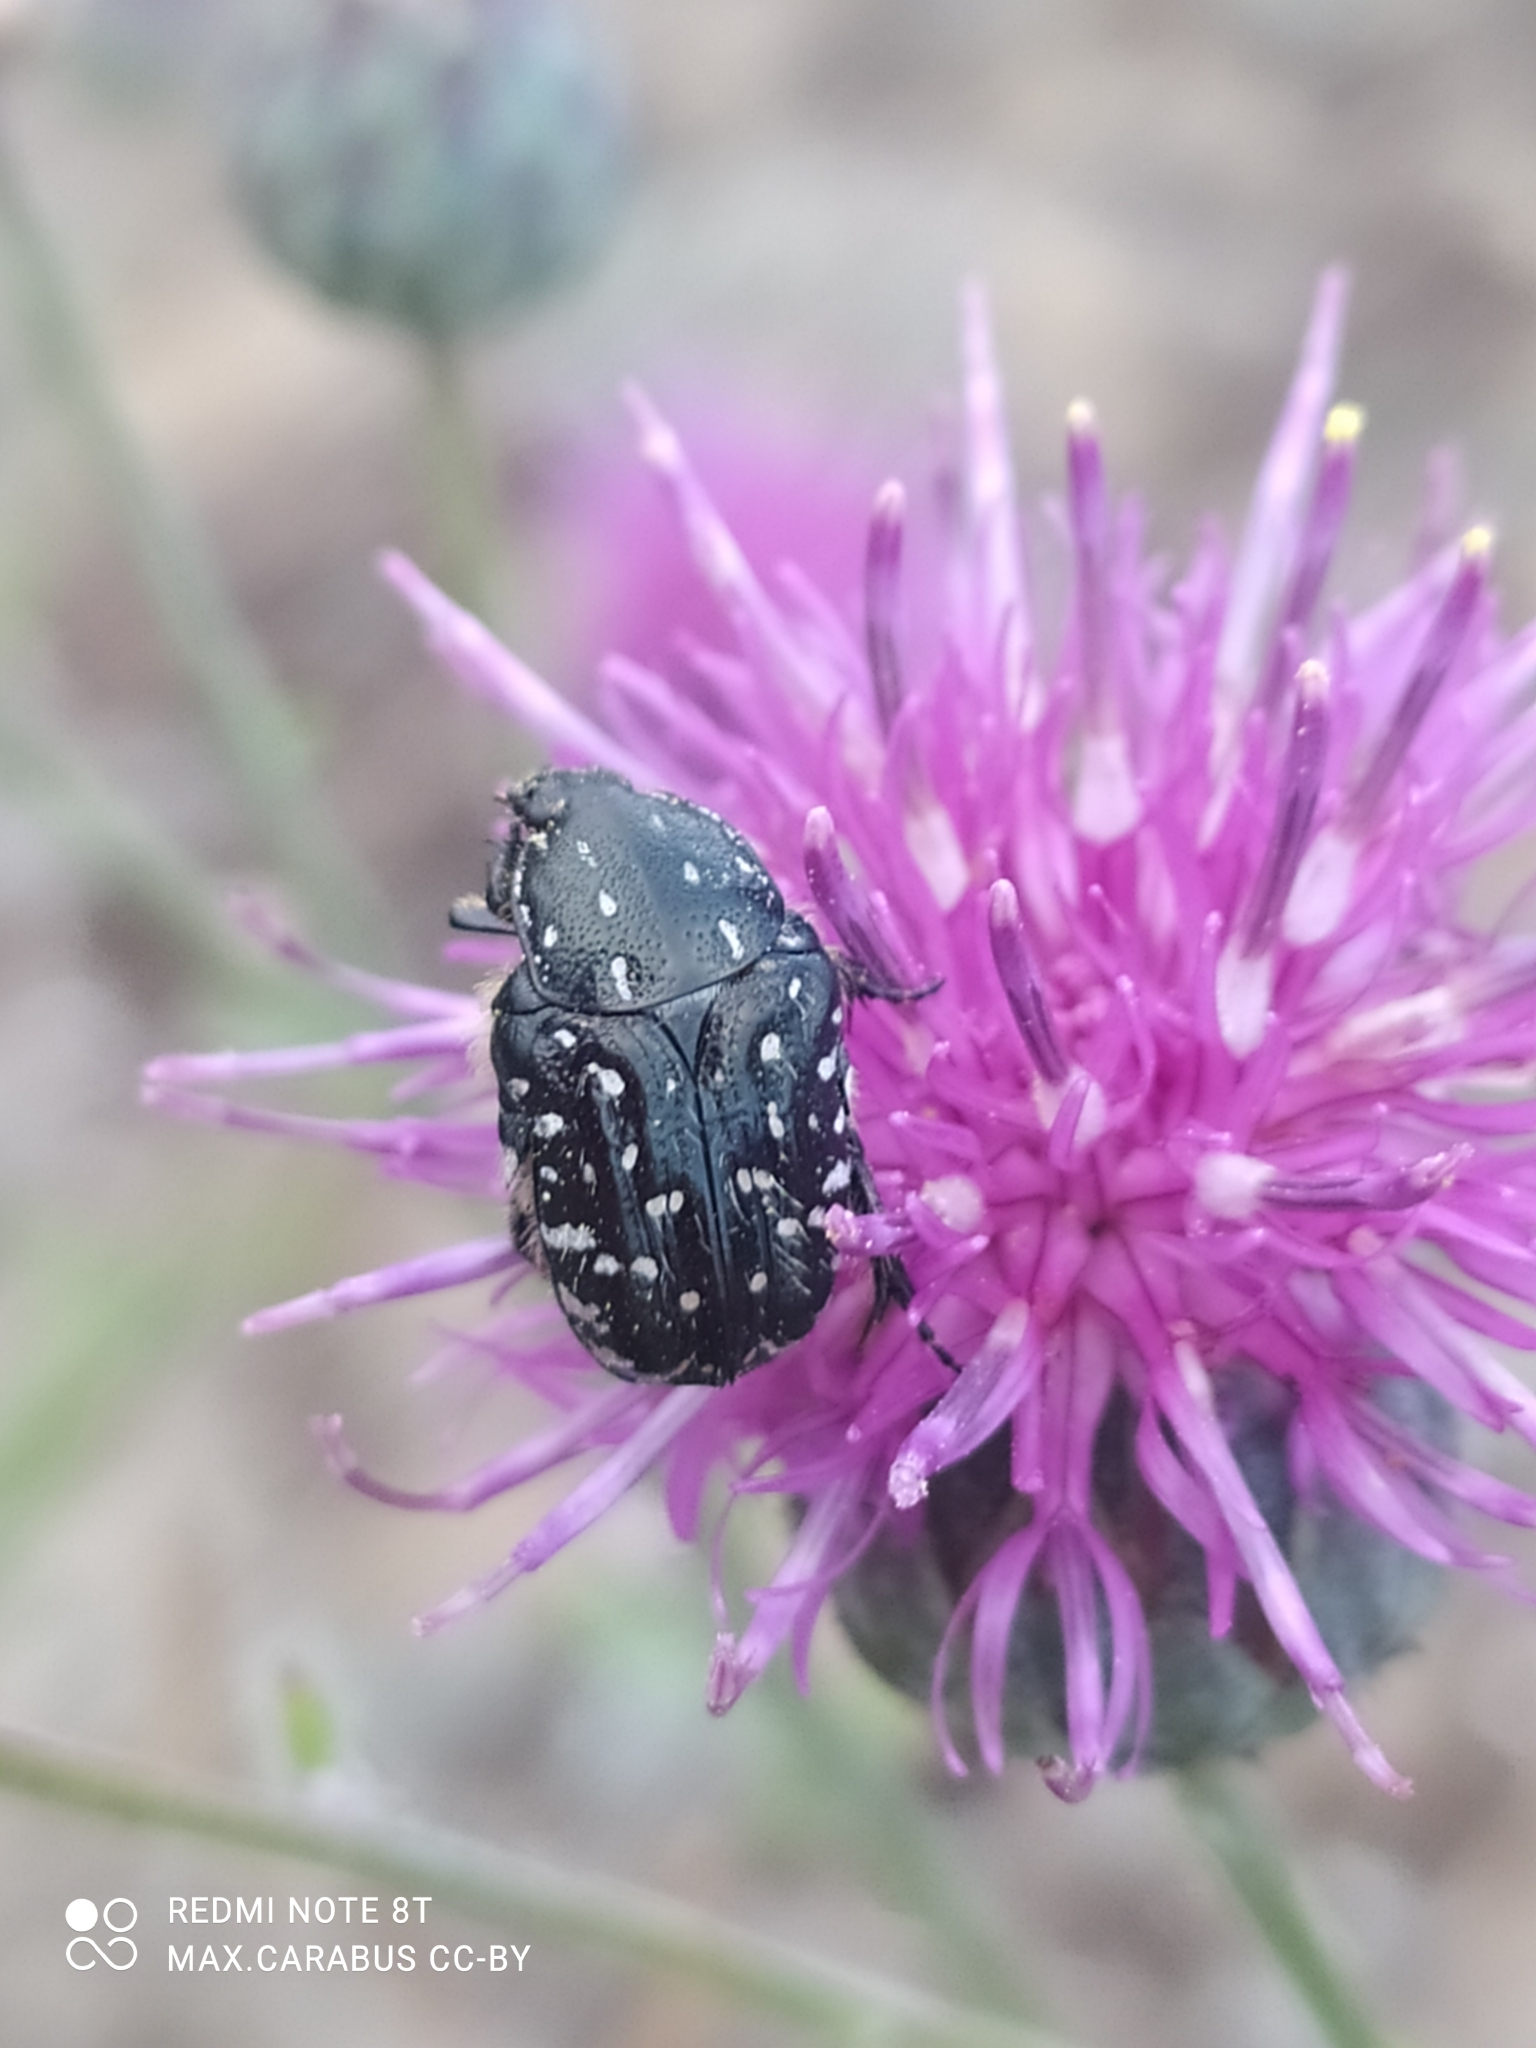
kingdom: Animalia
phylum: Arthropoda
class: Insecta
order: Coleoptera
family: Scarabaeidae
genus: Oxythyrea
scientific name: Oxythyrea funesta
